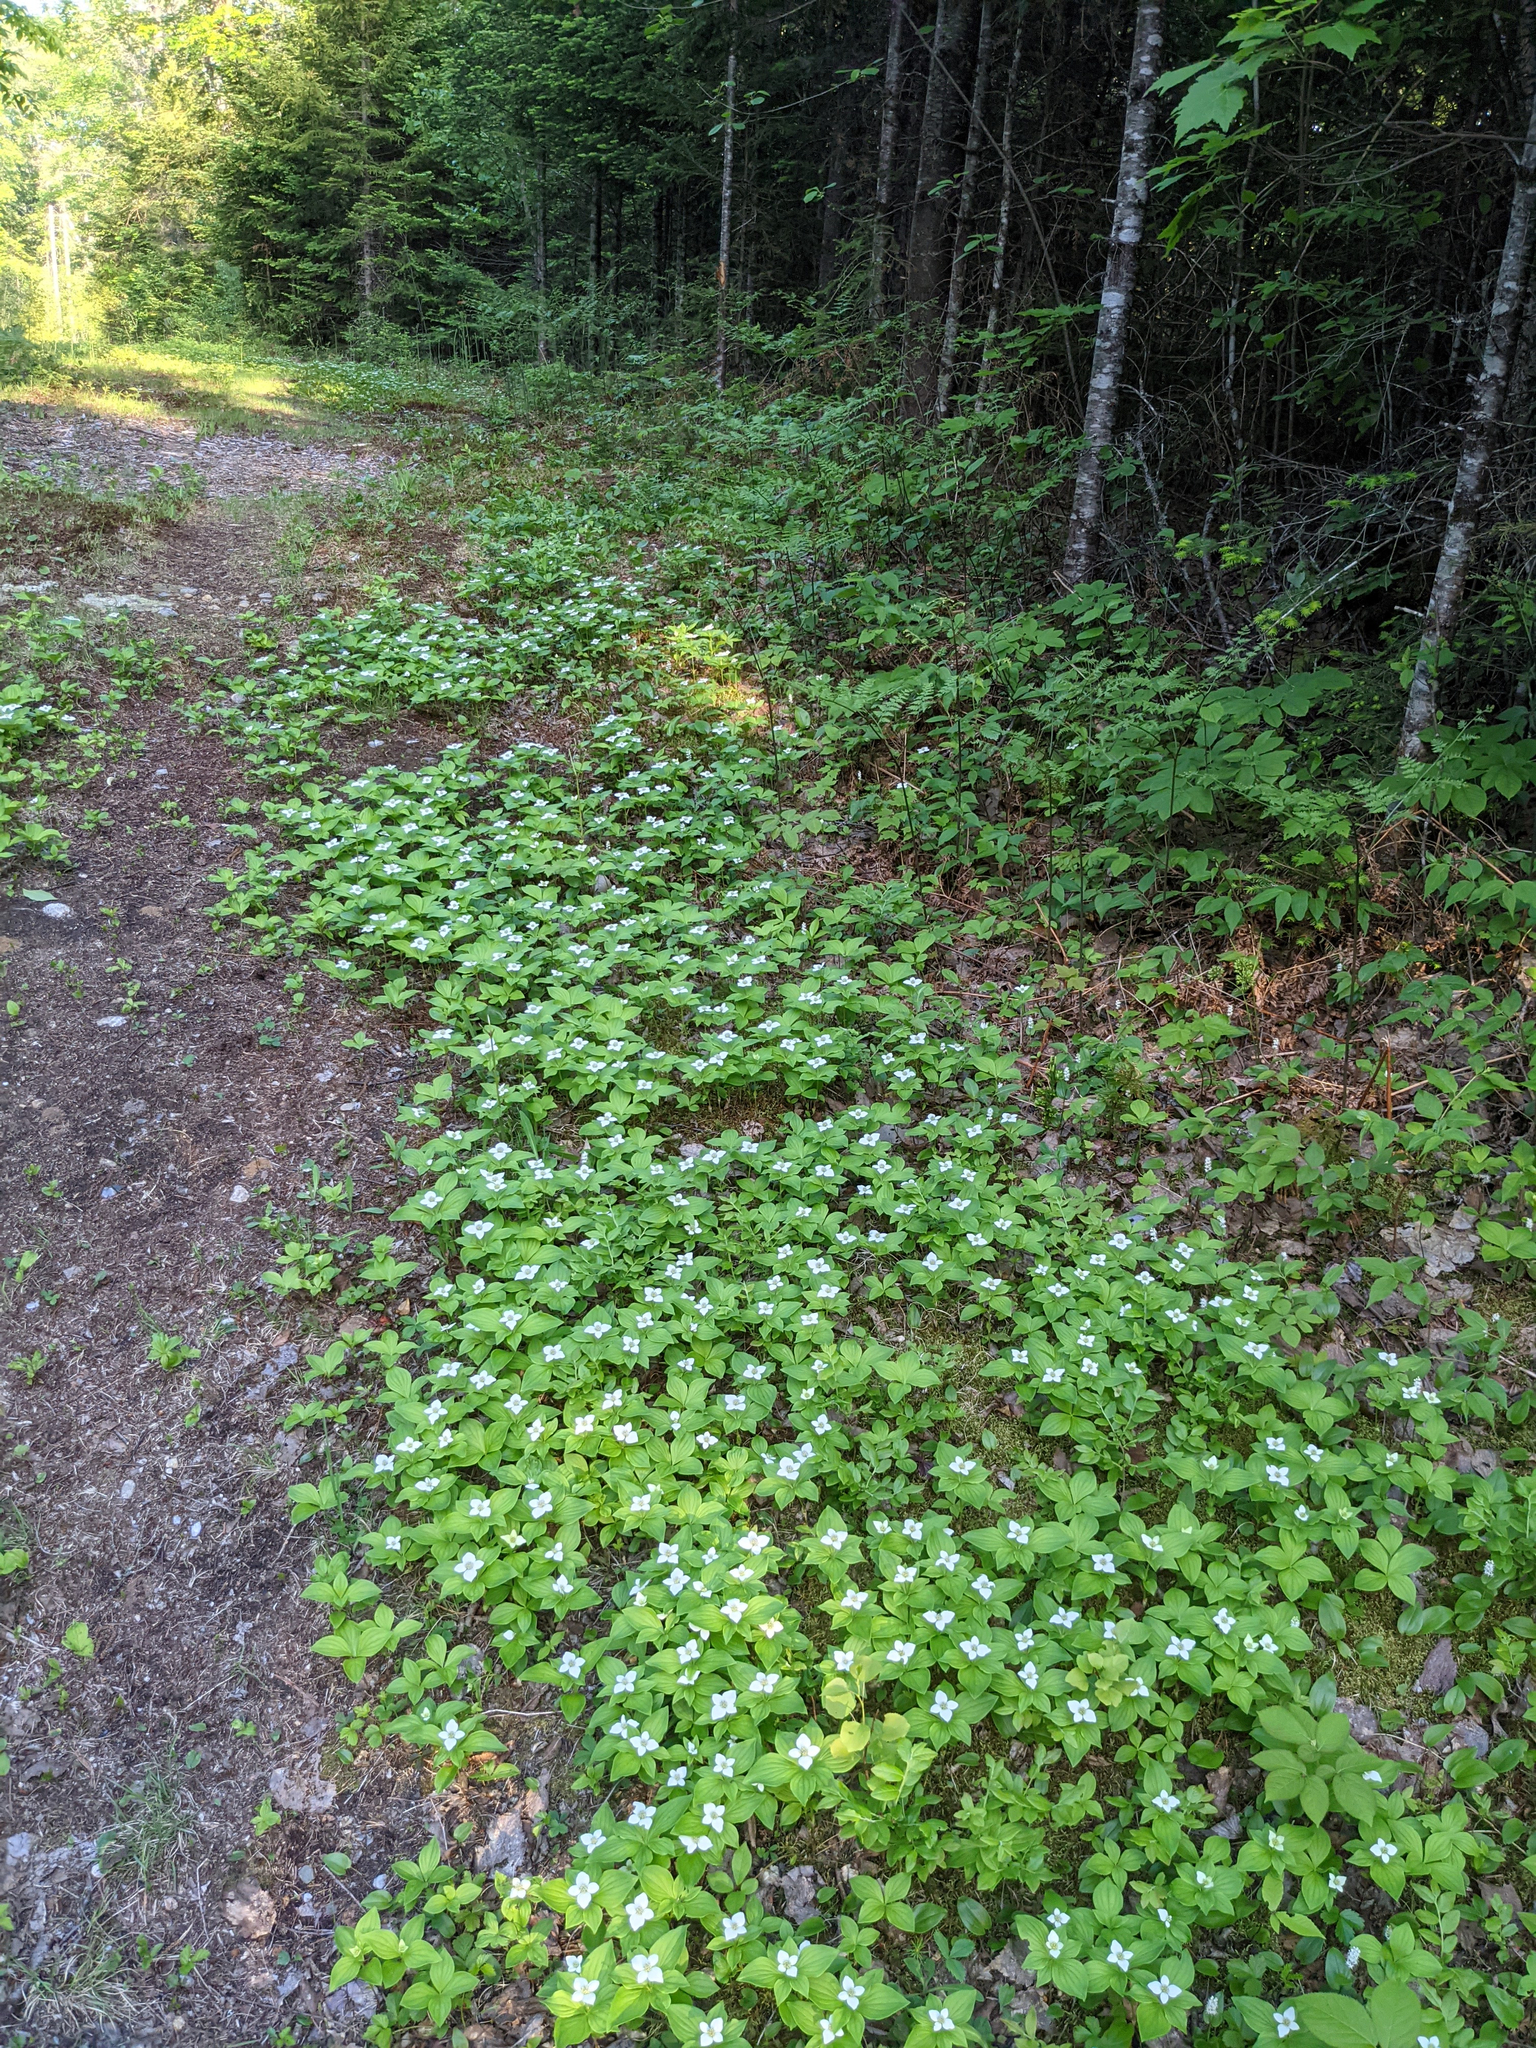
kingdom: Plantae
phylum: Tracheophyta
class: Magnoliopsida
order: Cornales
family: Cornaceae
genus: Cornus
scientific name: Cornus canadensis
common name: Creeping dogwood
